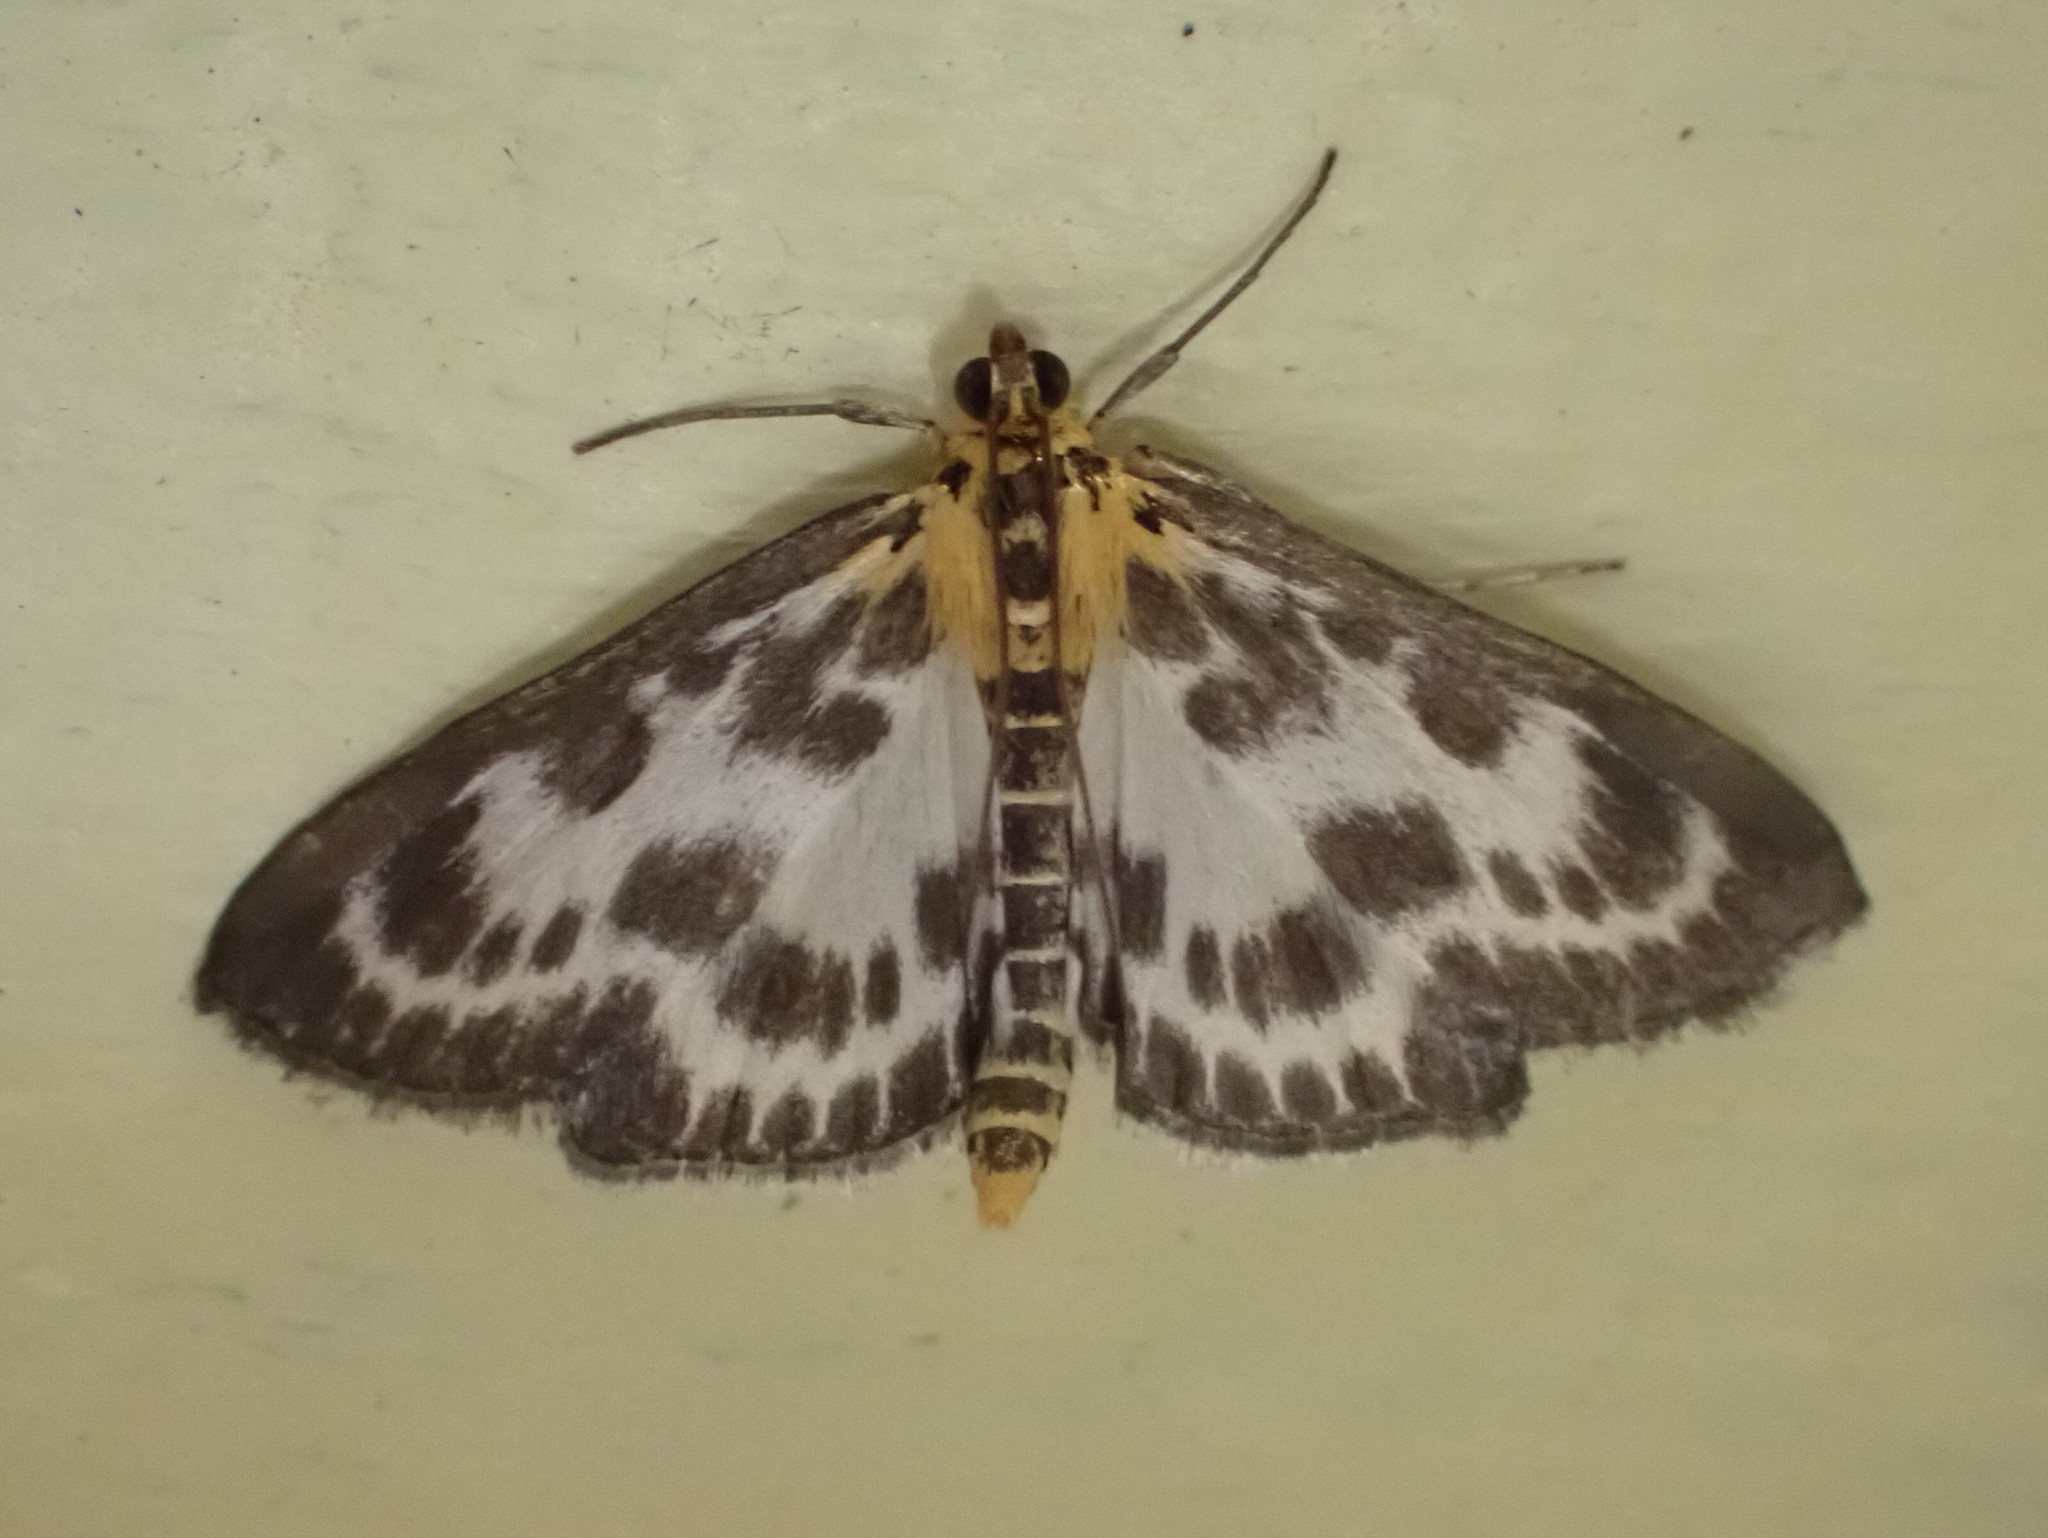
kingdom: Animalia
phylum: Arthropoda
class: Insecta
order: Lepidoptera
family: Crambidae
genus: Anania
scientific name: Anania hortulata
